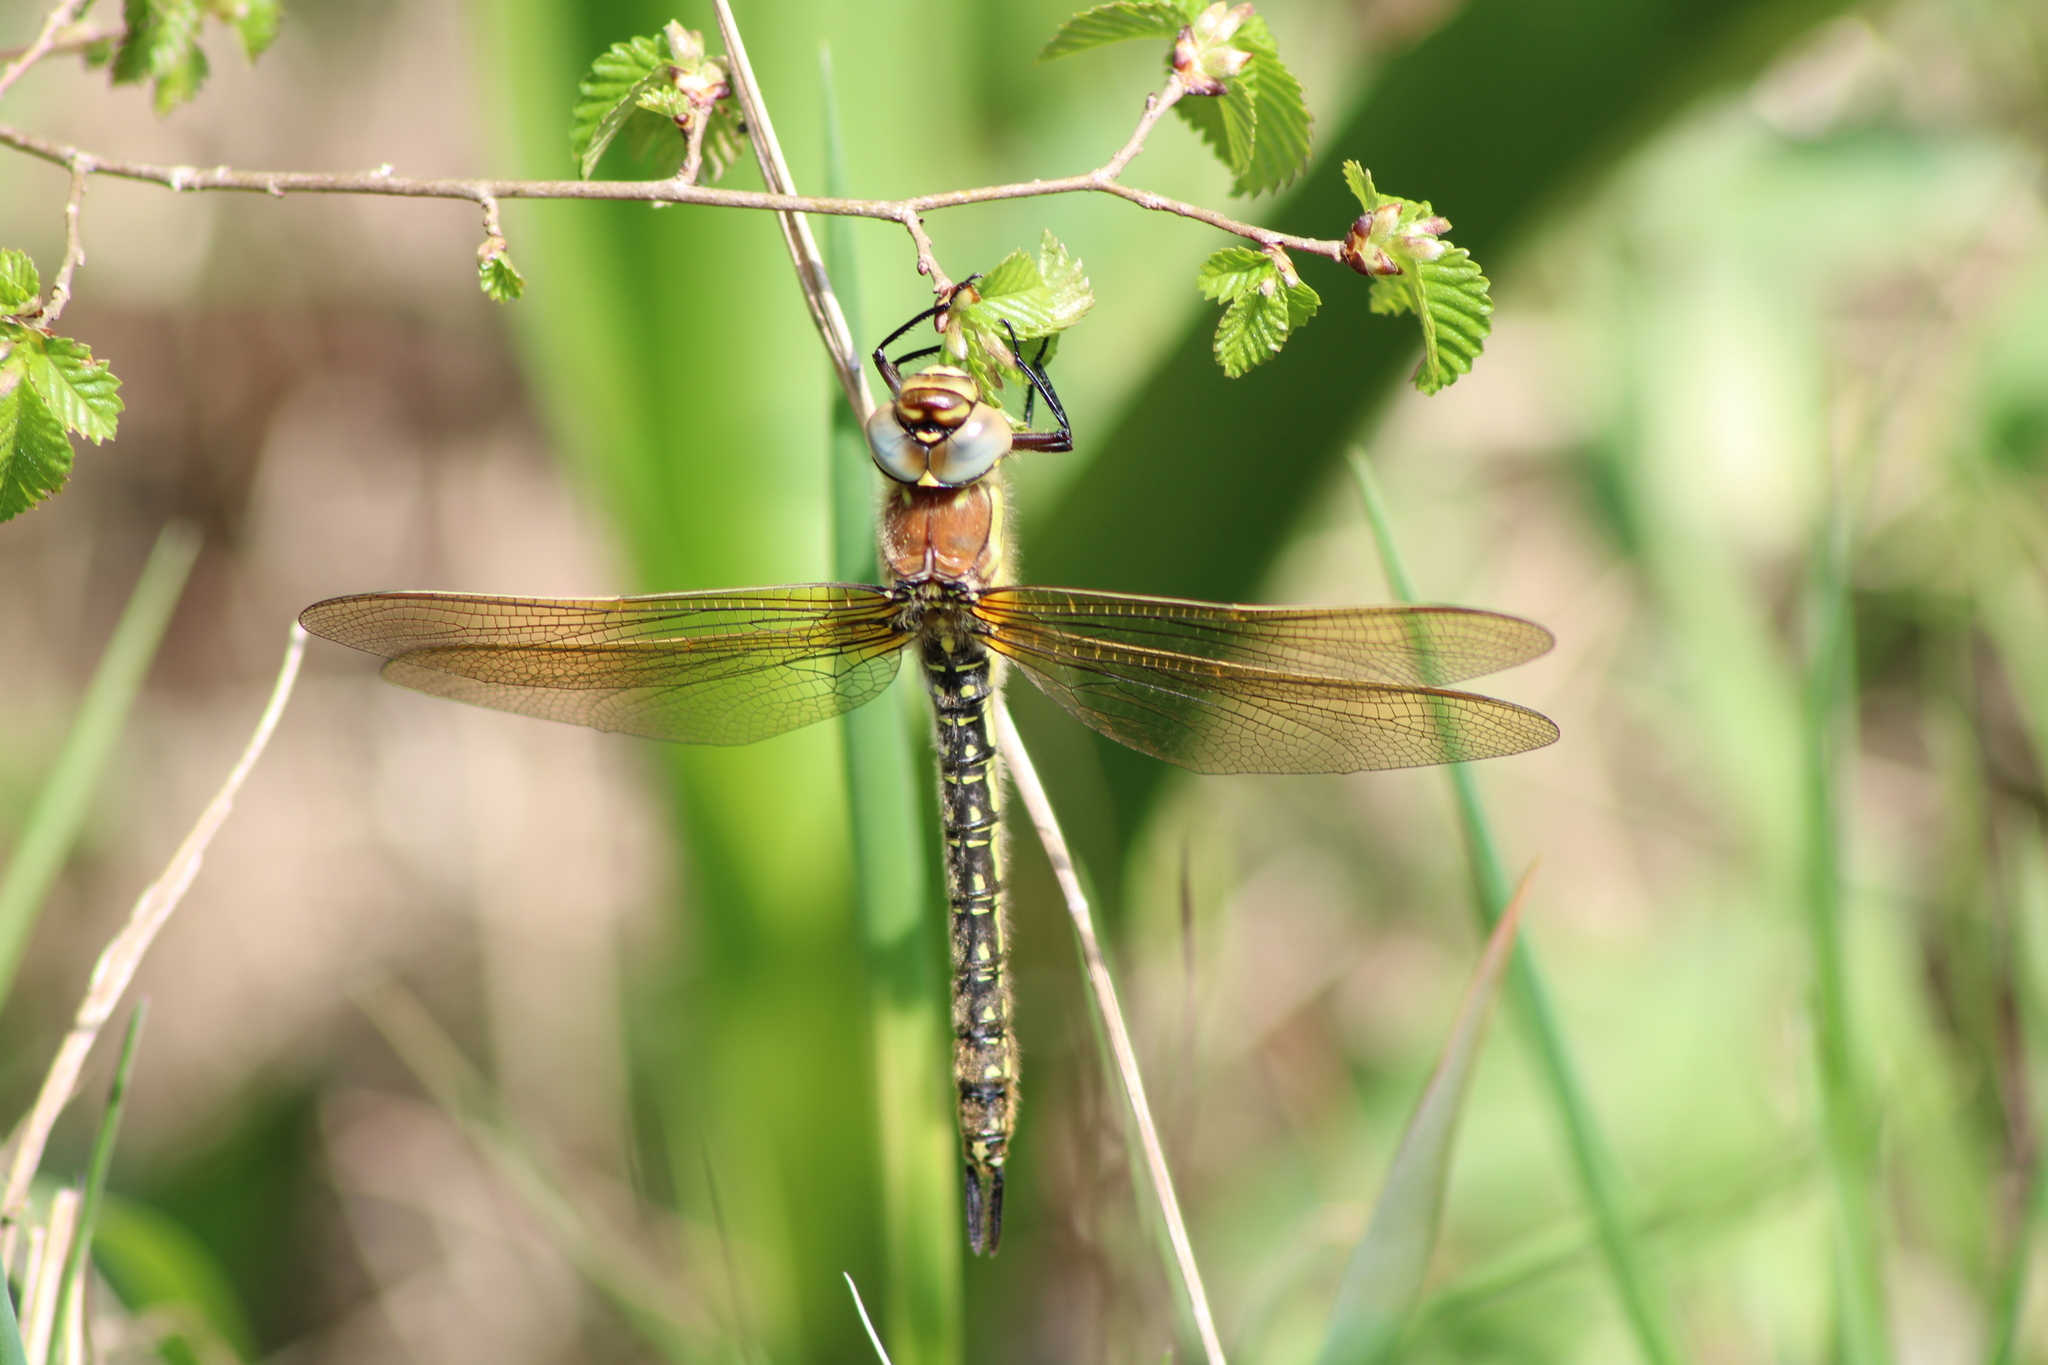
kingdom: Animalia
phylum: Arthropoda
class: Insecta
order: Odonata
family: Aeshnidae
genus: Brachytron
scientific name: Brachytron pratense
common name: Hairy hawker
